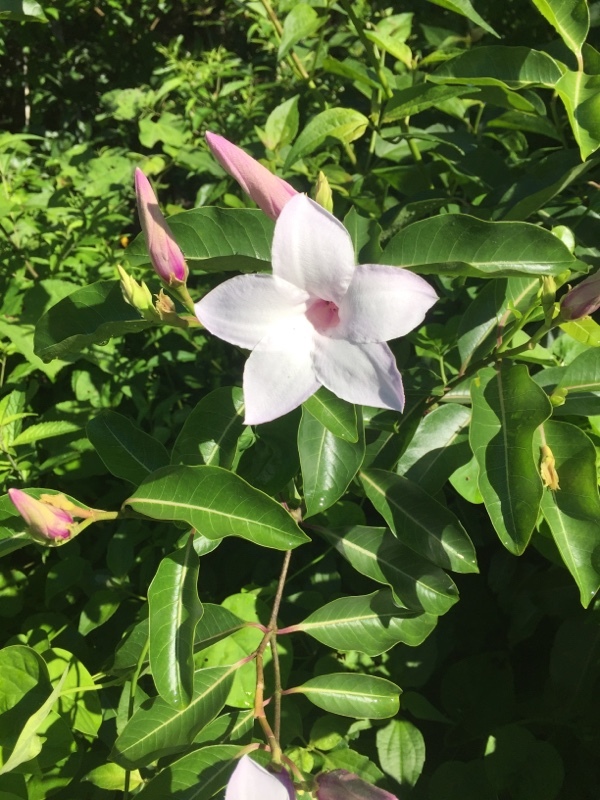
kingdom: Plantae
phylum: Tracheophyta
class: Magnoliopsida
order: Gentianales
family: Apocynaceae
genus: Cryptostegia
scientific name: Cryptostegia grandiflora
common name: Palay rubbervine
